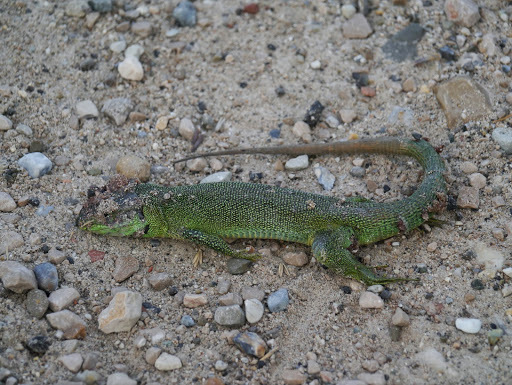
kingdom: Animalia
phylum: Chordata
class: Squamata
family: Lacertidae
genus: Lacerta
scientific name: Lacerta bilineata
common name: Western green lizard
